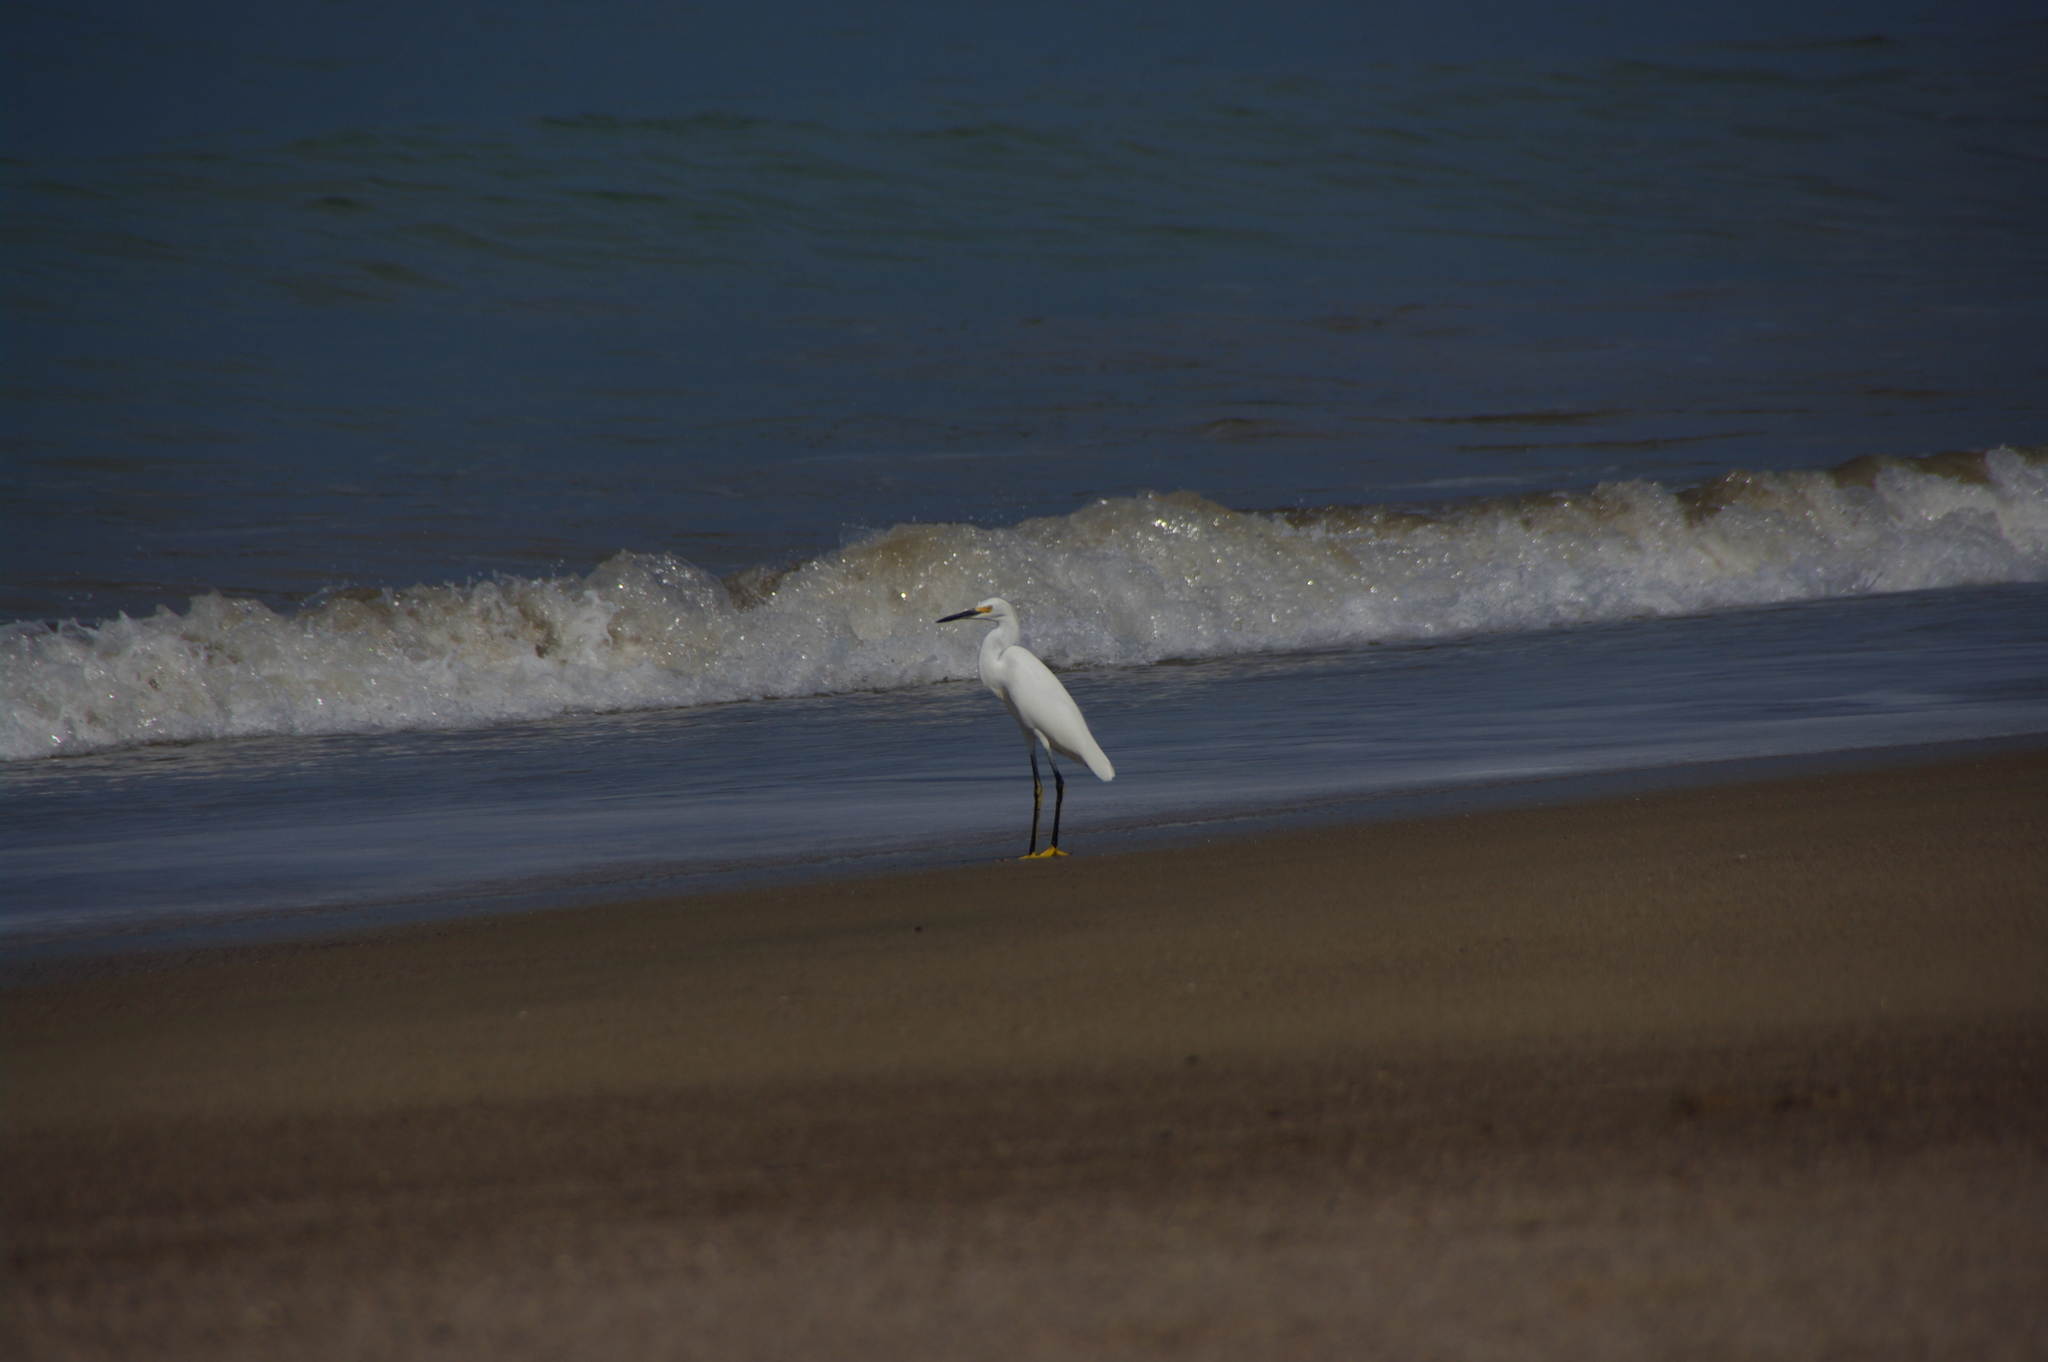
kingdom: Animalia
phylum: Chordata
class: Aves
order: Pelecaniformes
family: Ardeidae
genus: Egretta
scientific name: Egretta thula
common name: Snowy egret
